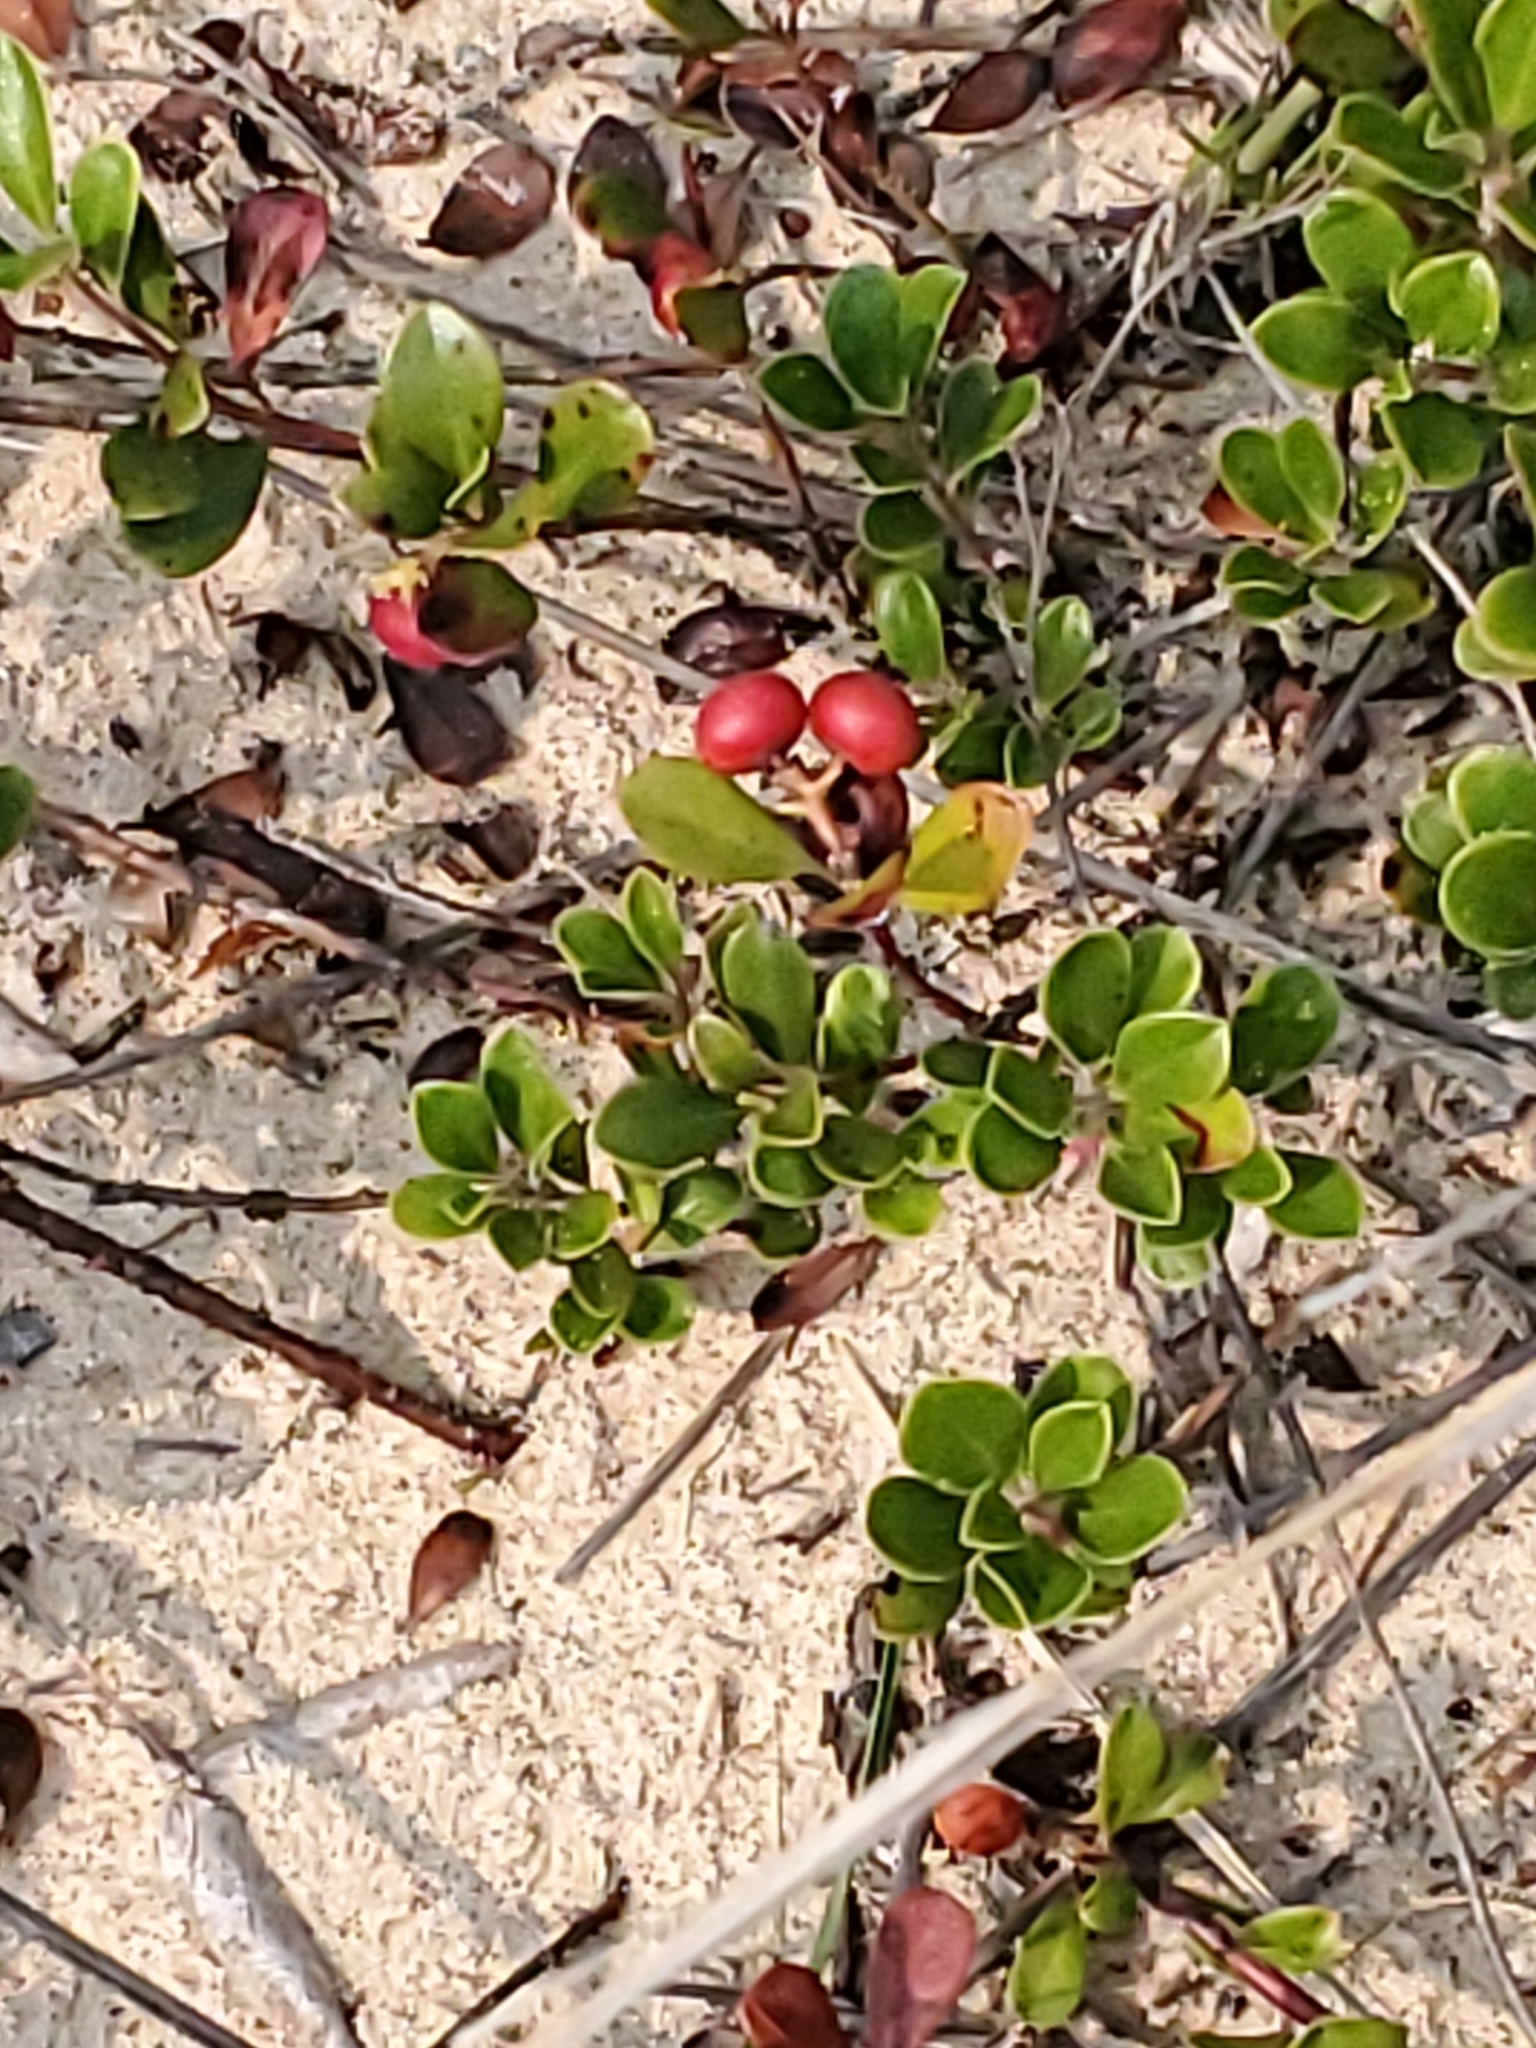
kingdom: Plantae
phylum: Tracheophyta
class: Magnoliopsida
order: Ericales
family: Ericaceae
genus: Arctostaphylos
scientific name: Arctostaphylos uva-ursi
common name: Bearberry
